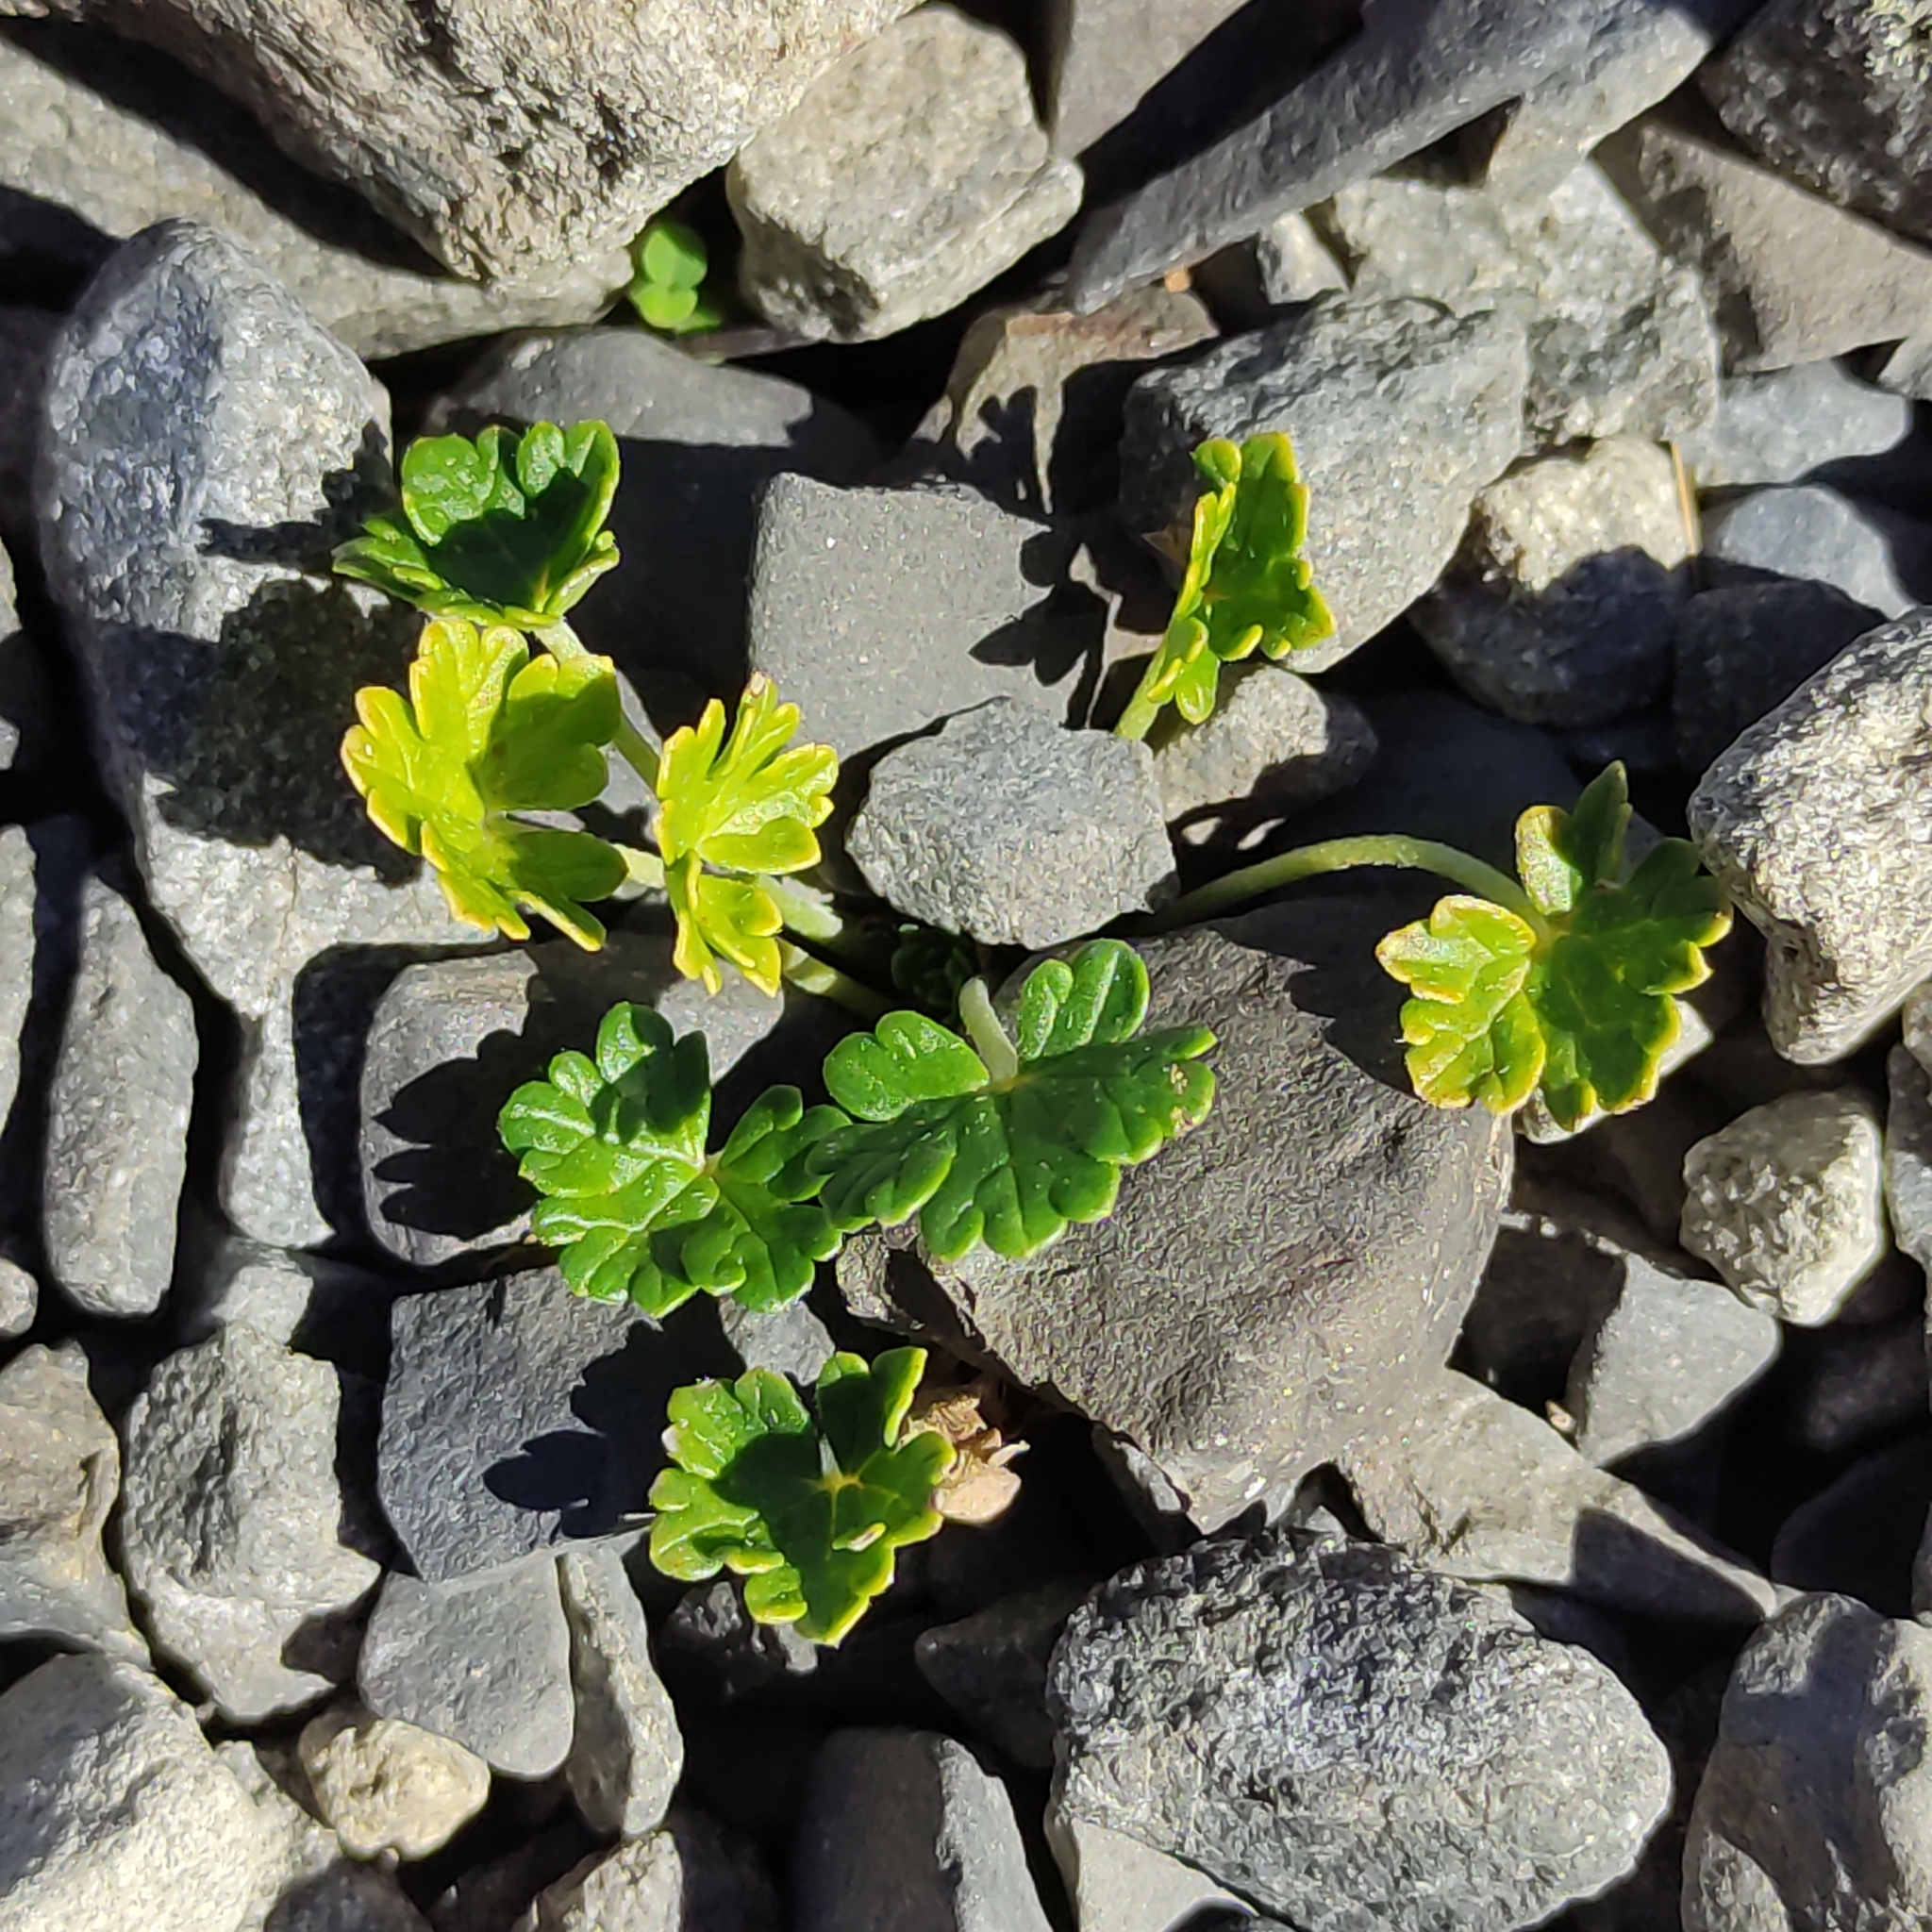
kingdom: Plantae
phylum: Tracheophyta
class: Magnoliopsida
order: Geraniales
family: Geraniaceae
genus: Geranium
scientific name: Geranium brevicaule
